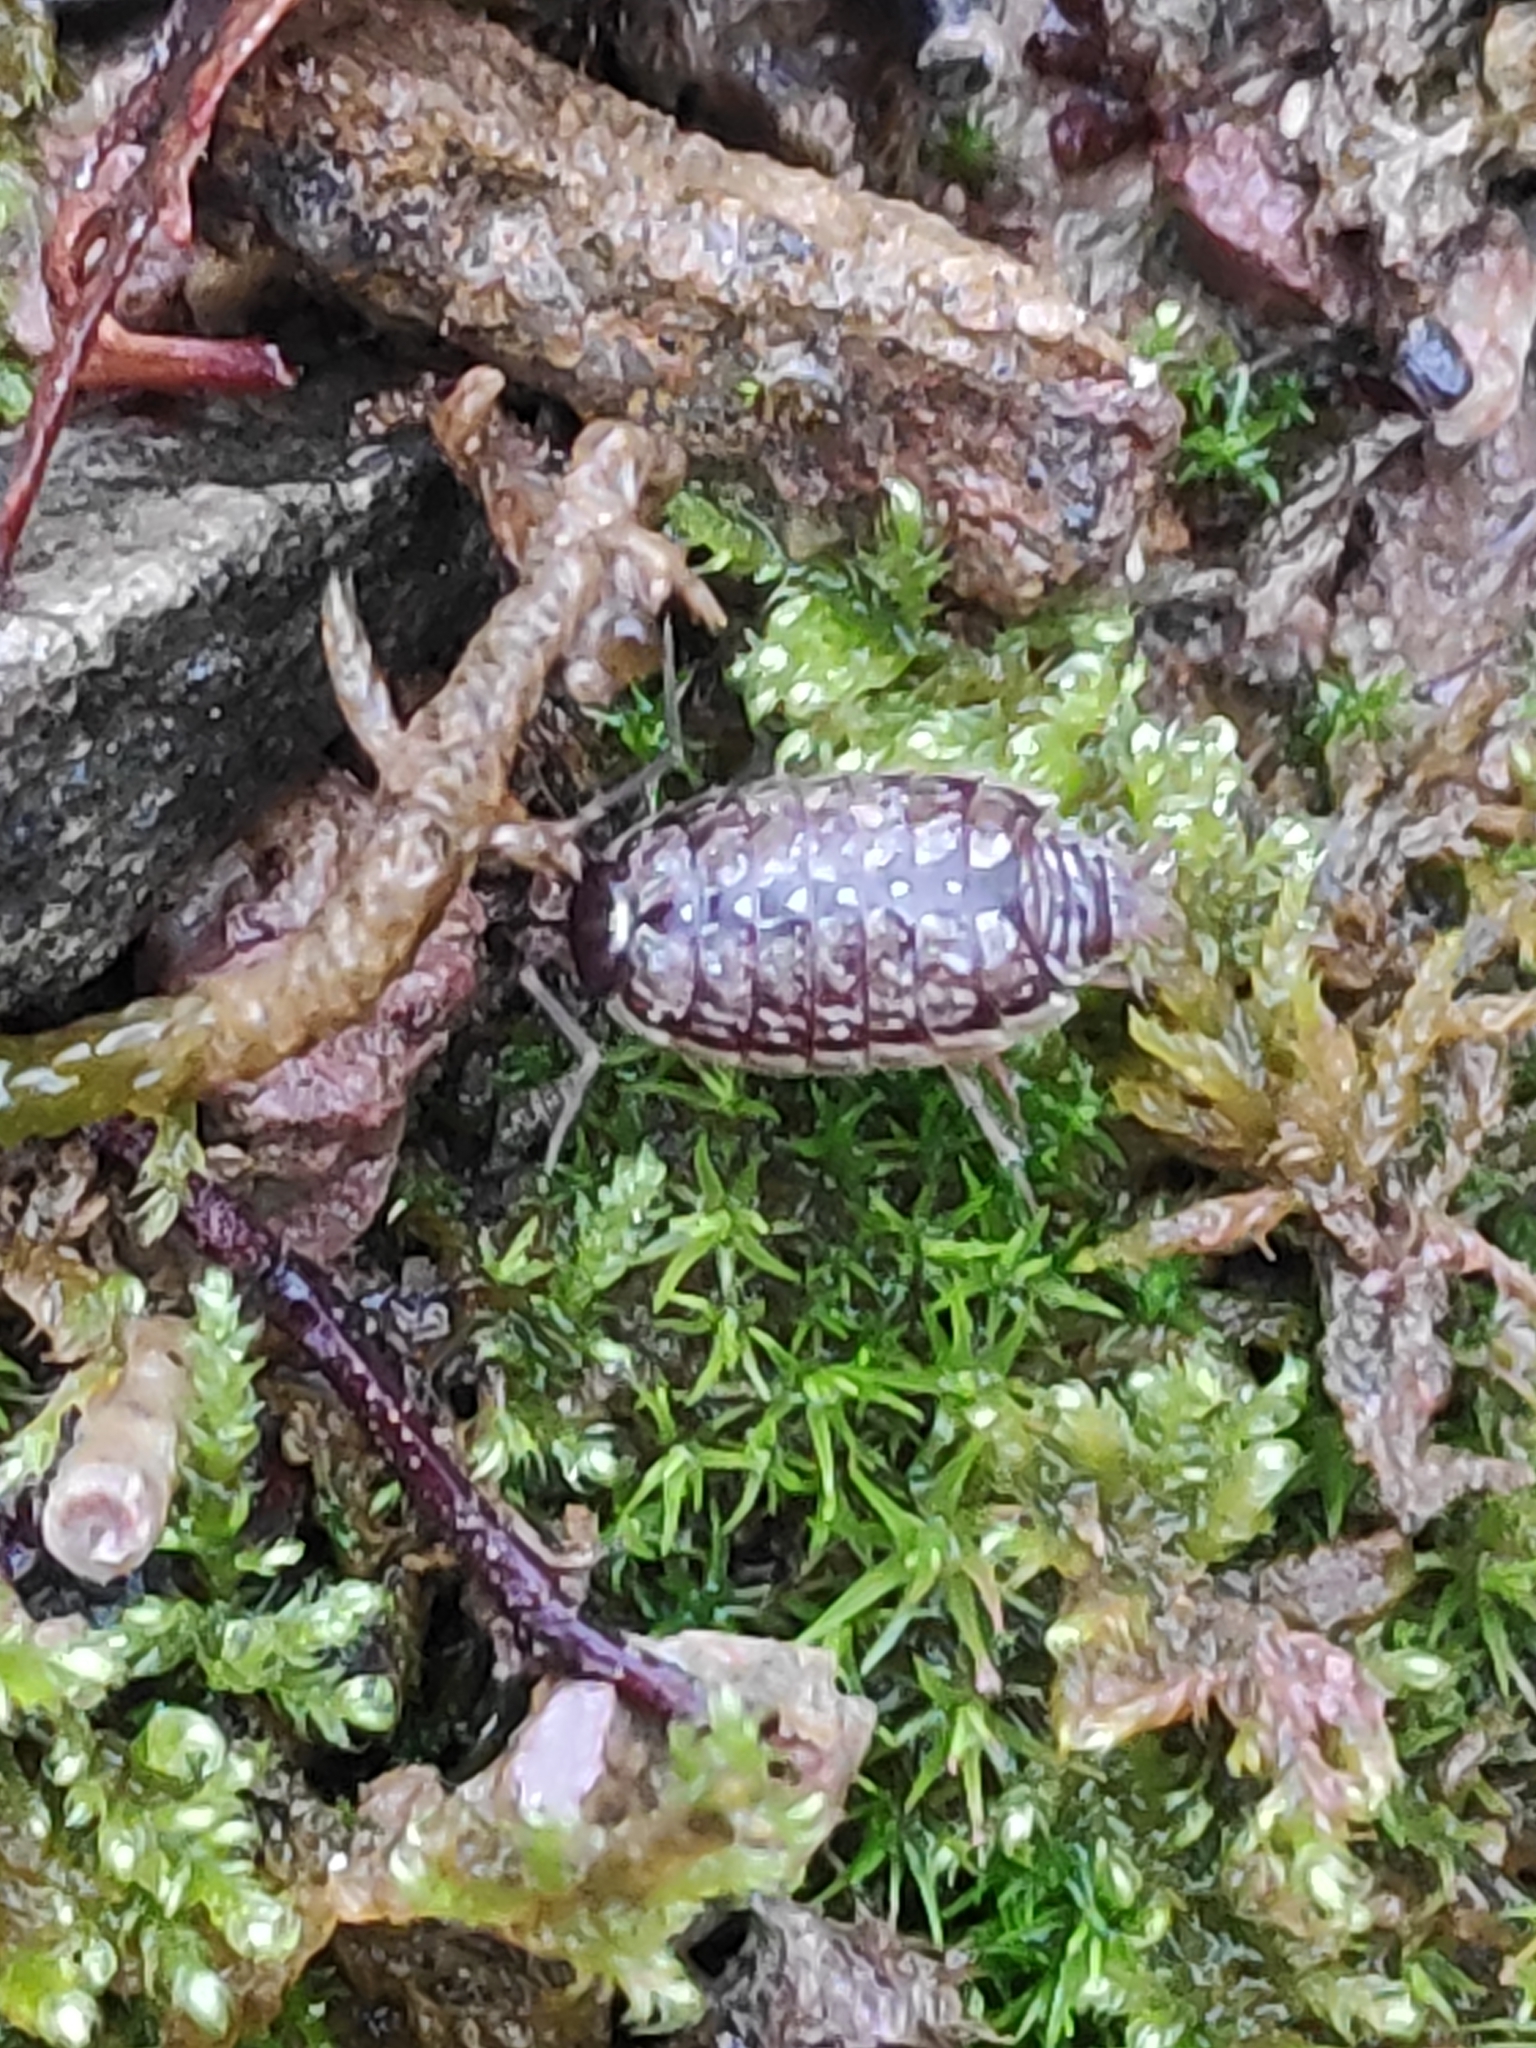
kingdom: Animalia
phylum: Arthropoda
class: Malacostraca
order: Isopoda
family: Philosciidae
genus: Philoscia
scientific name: Philoscia muscorum
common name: Common striped woodlouse
